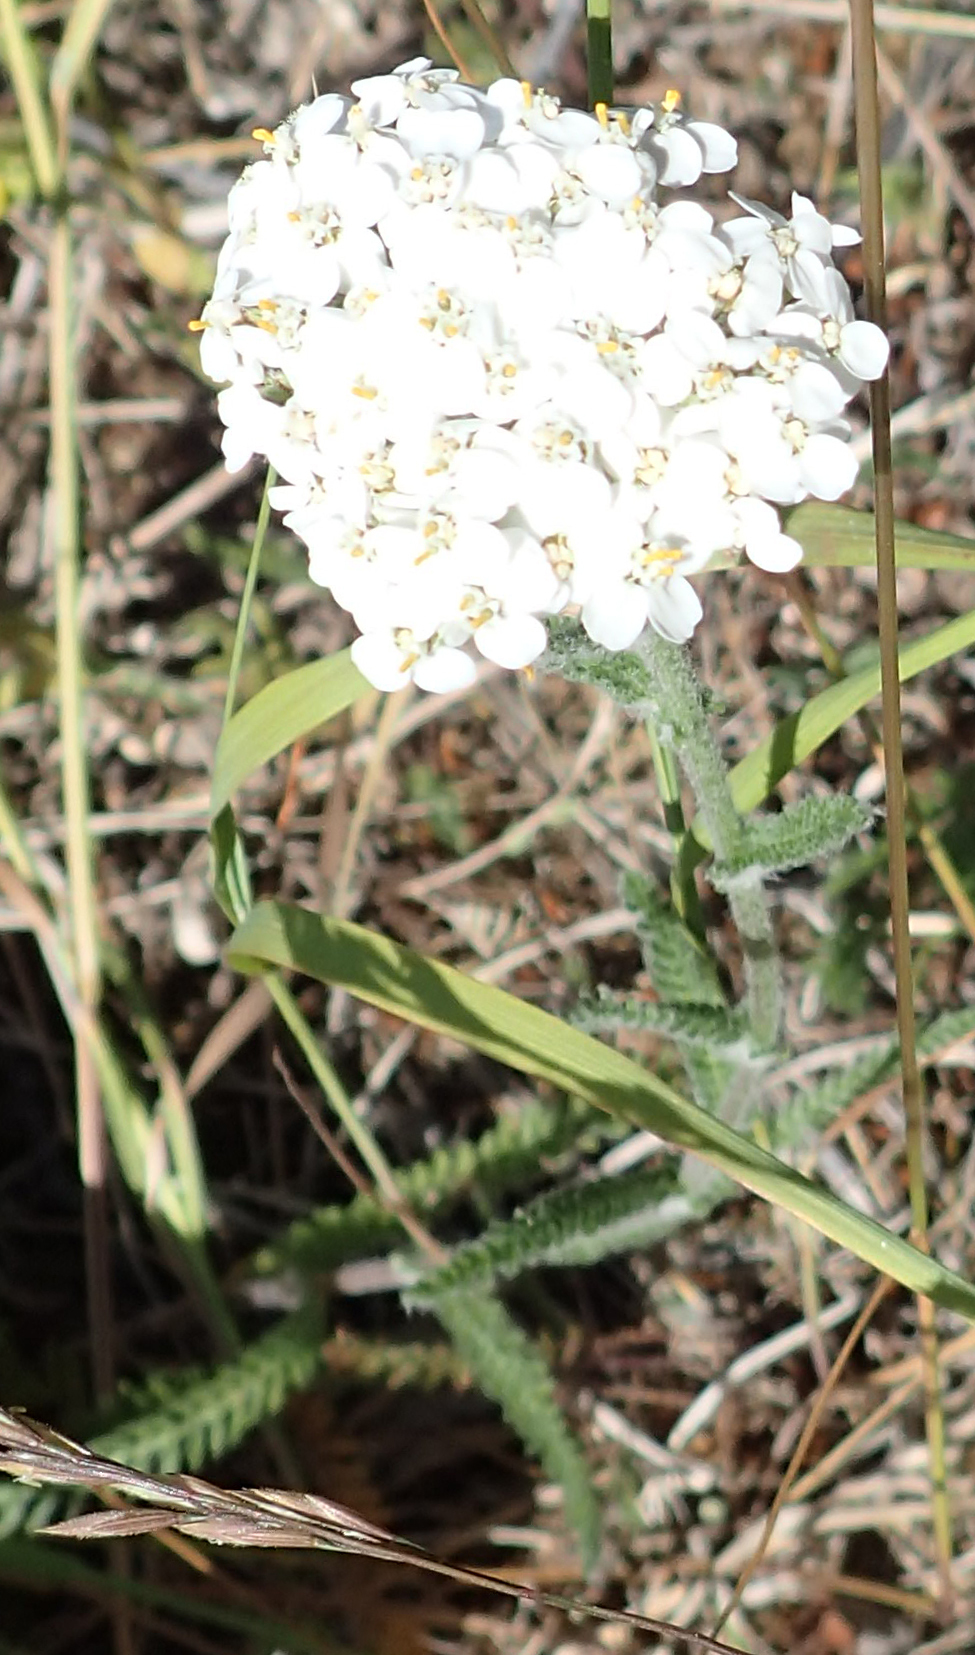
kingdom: Plantae
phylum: Tracheophyta
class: Magnoliopsida
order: Asterales
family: Asteraceae
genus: Achillea
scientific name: Achillea millefolium
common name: Yarrow
